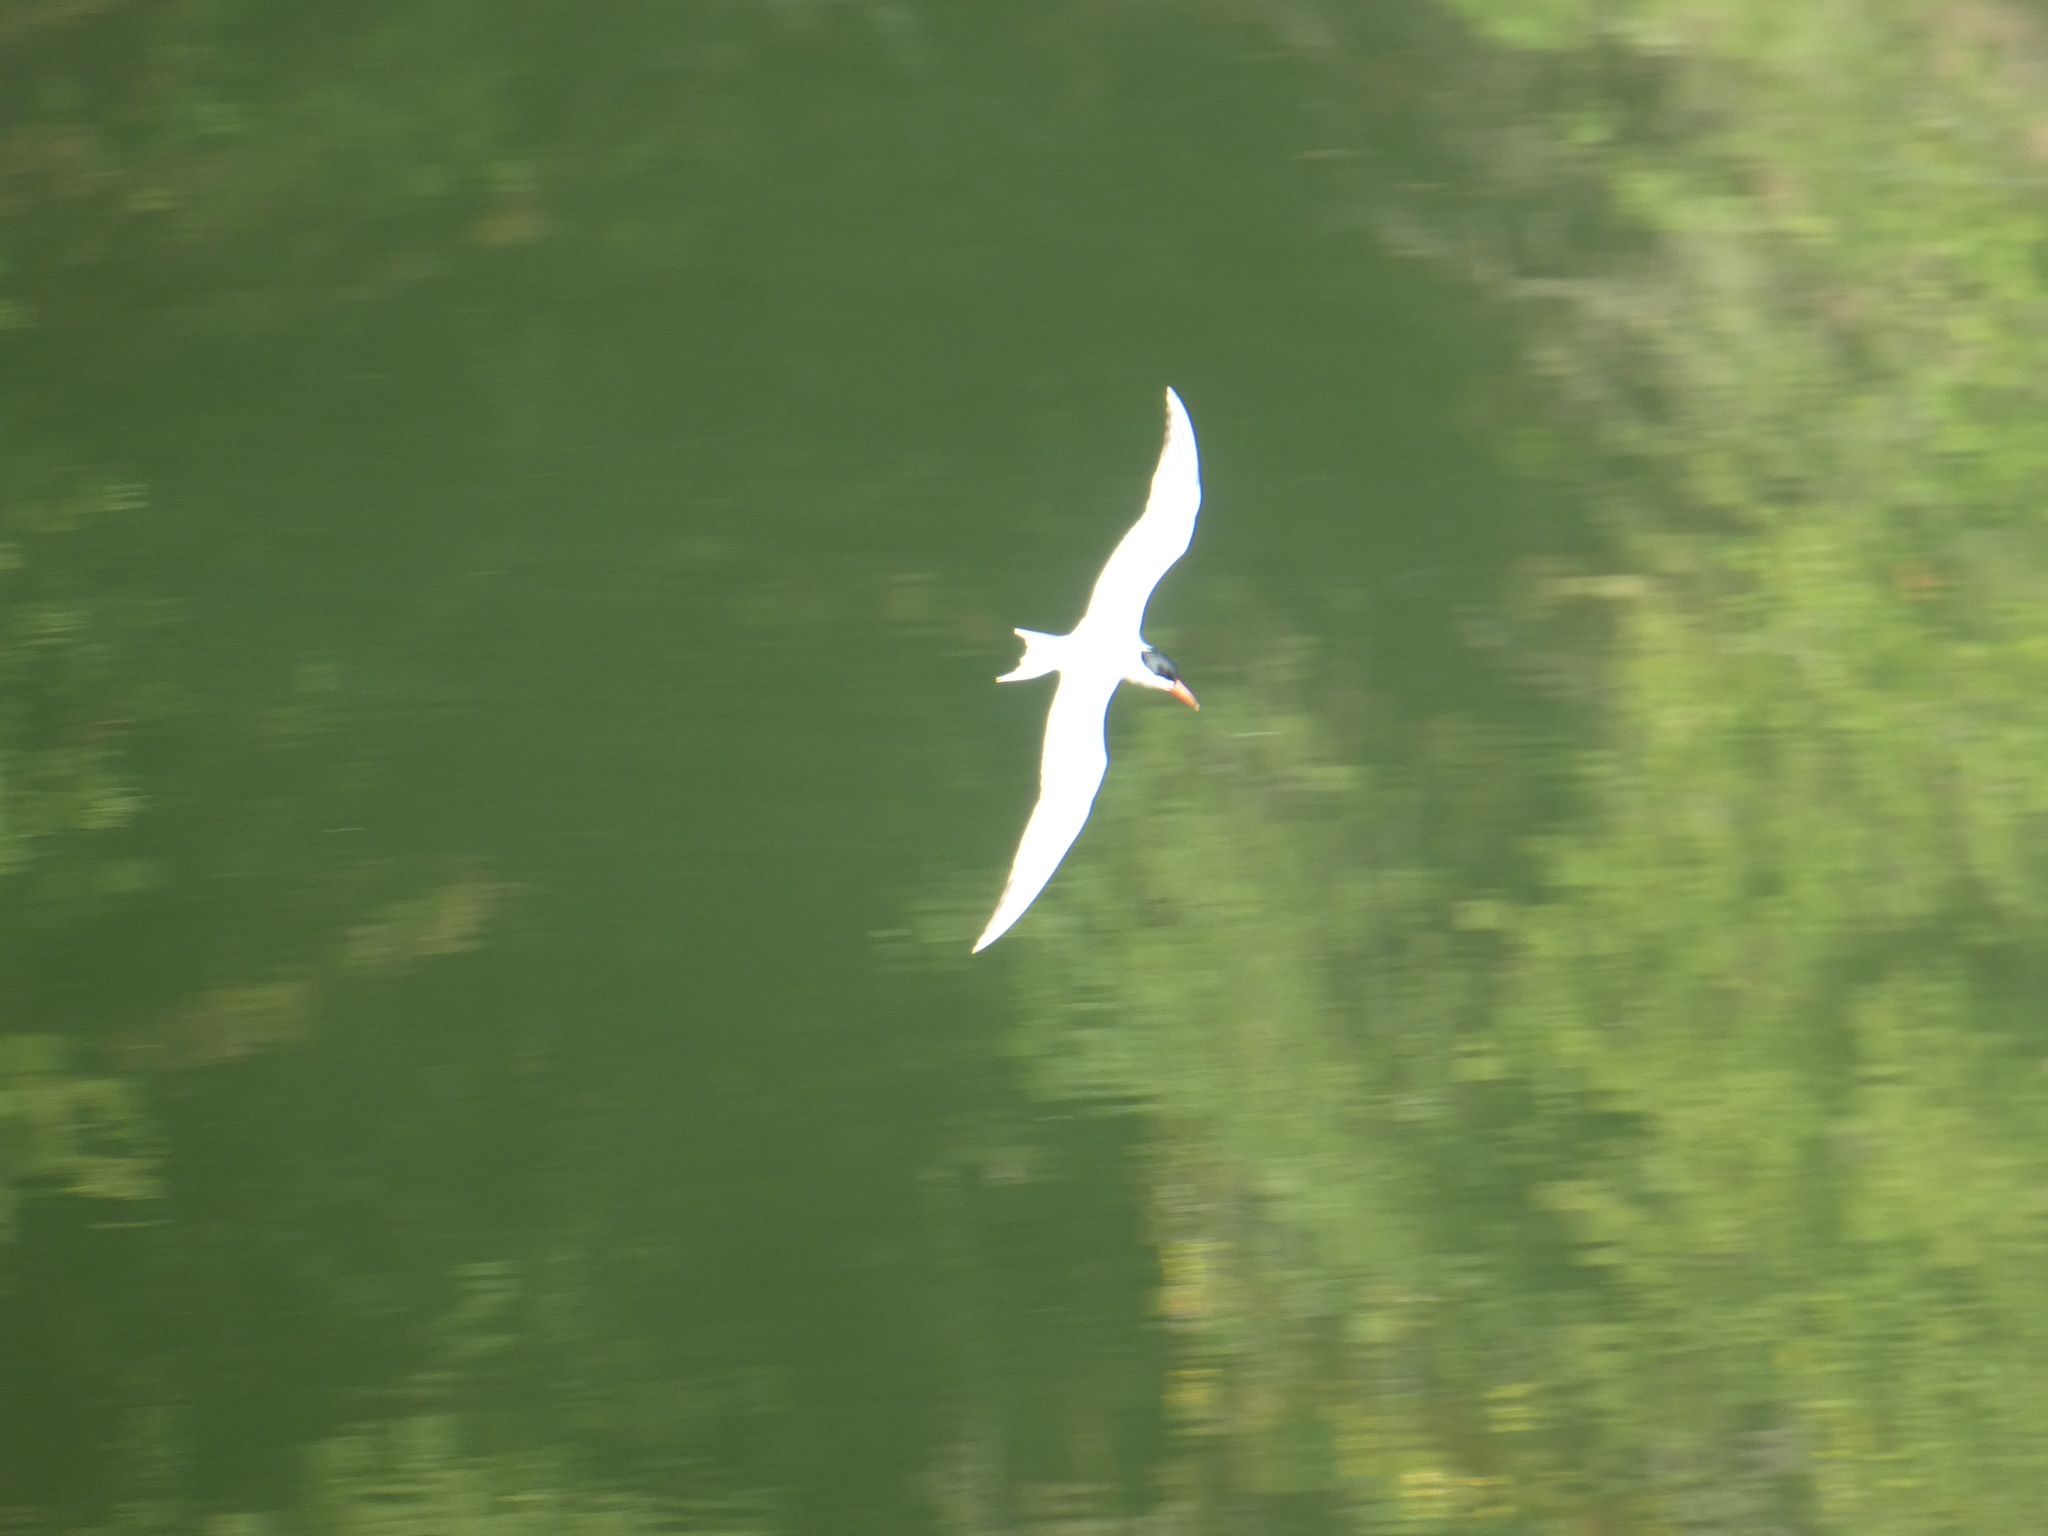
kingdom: Animalia
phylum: Chordata
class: Aves
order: Charadriiformes
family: Laridae
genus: Hydroprogne
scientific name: Hydroprogne caspia
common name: Caspian tern
